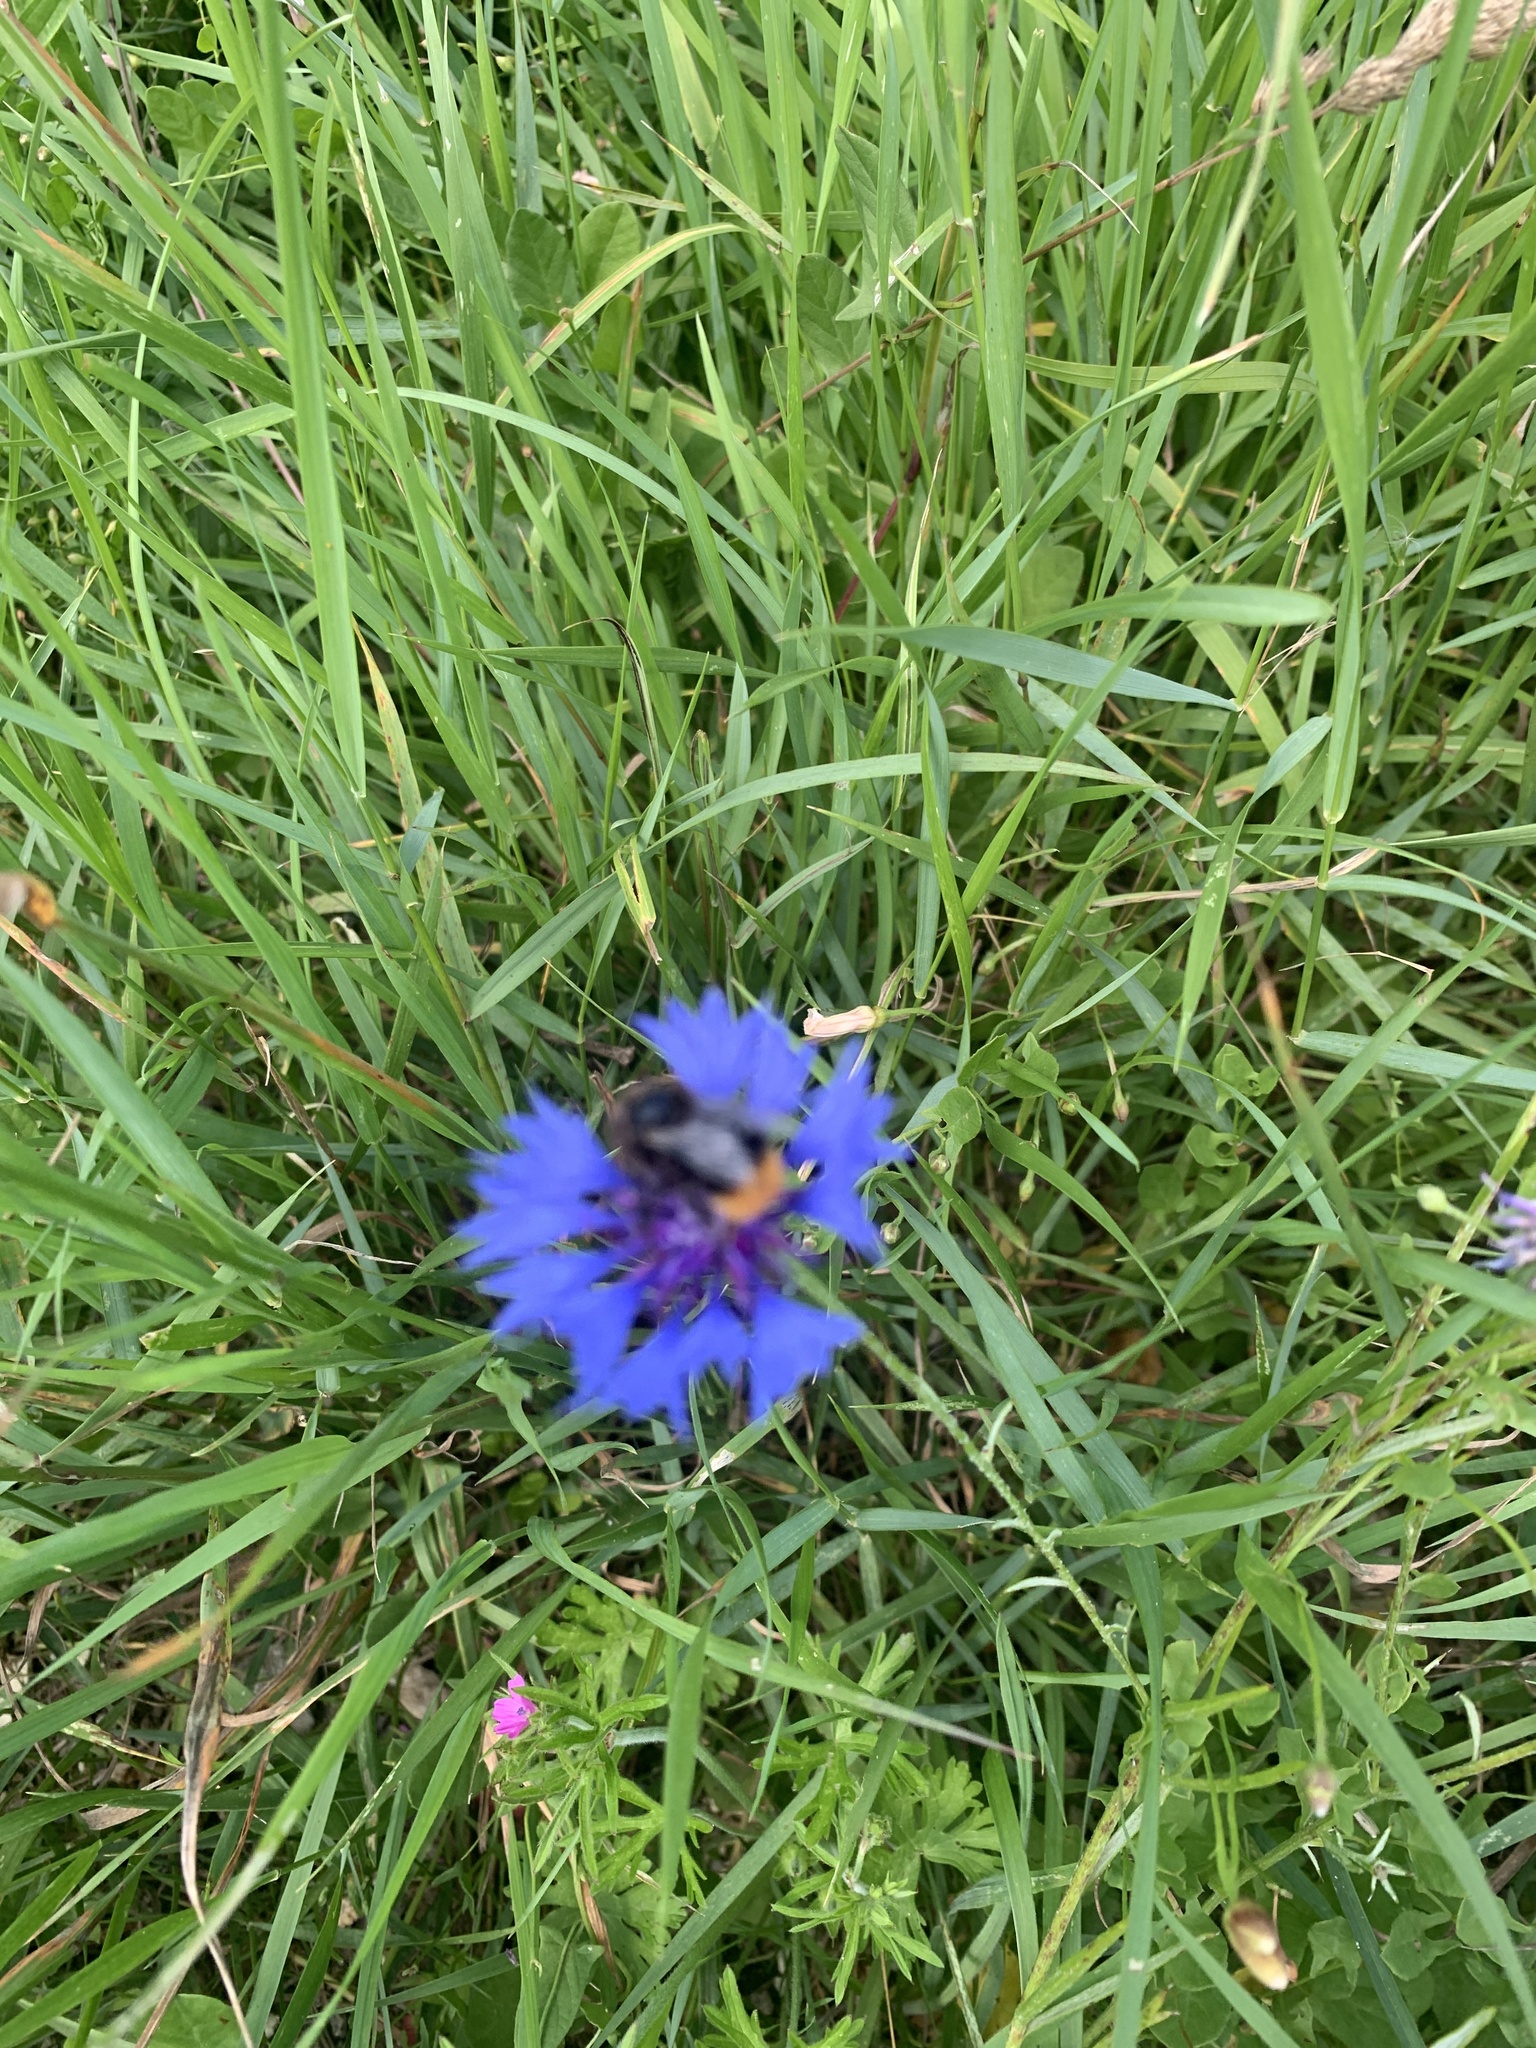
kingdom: Animalia
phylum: Arthropoda
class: Insecta
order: Hymenoptera
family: Apidae
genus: Bombus
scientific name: Bombus lapidarius
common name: Large red-tailed humble-bee
